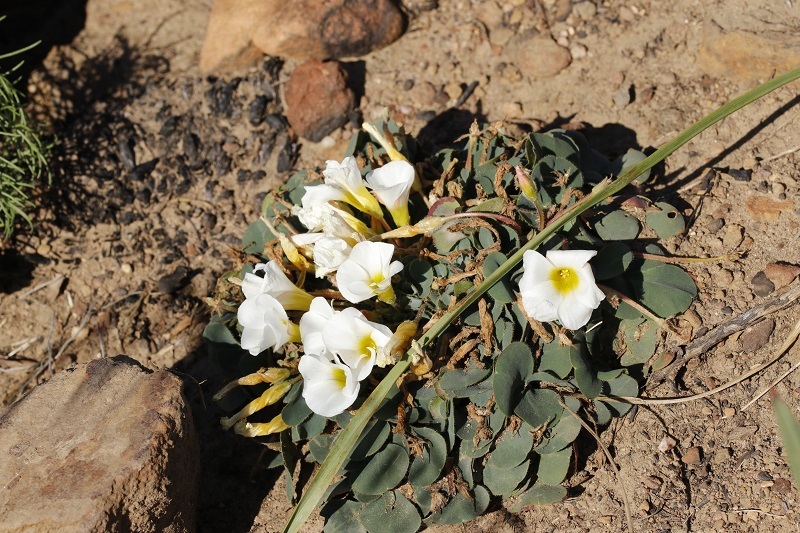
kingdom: Plantae
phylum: Tracheophyta
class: Magnoliopsida
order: Oxalidales
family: Oxalidaceae
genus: Oxalis
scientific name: Oxalis purpurea
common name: Purple woodsorrel
